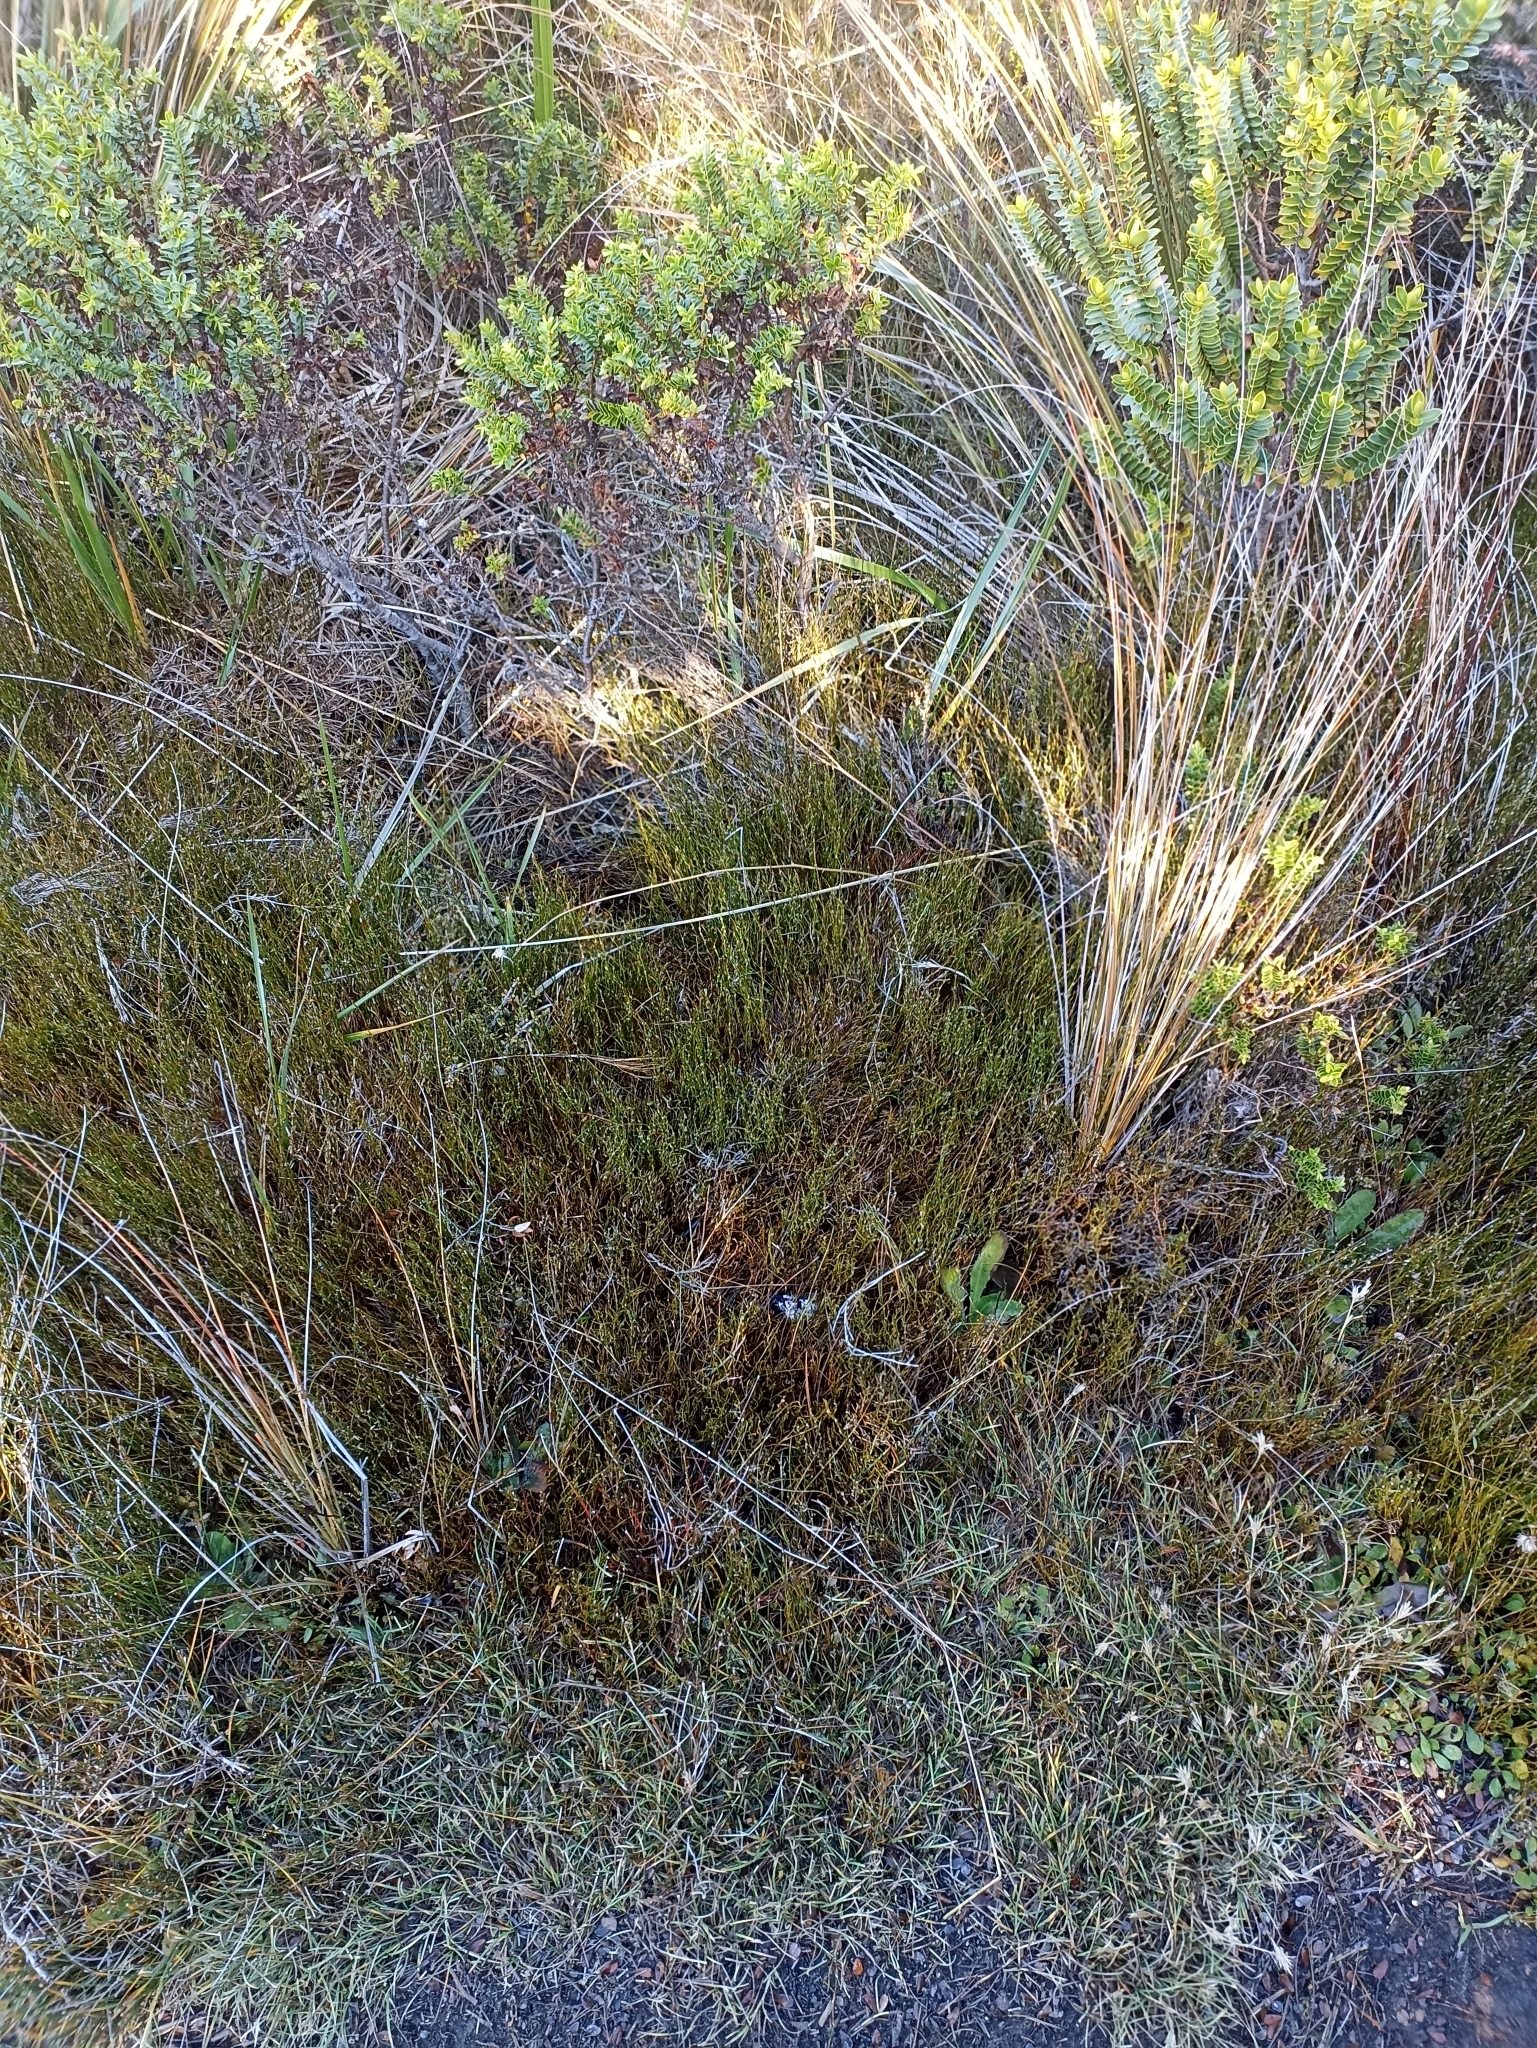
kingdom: Plantae
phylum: Tracheophyta
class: Liliopsida
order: Poales
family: Restionaceae
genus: Empodisma
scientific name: Empodisma minus
